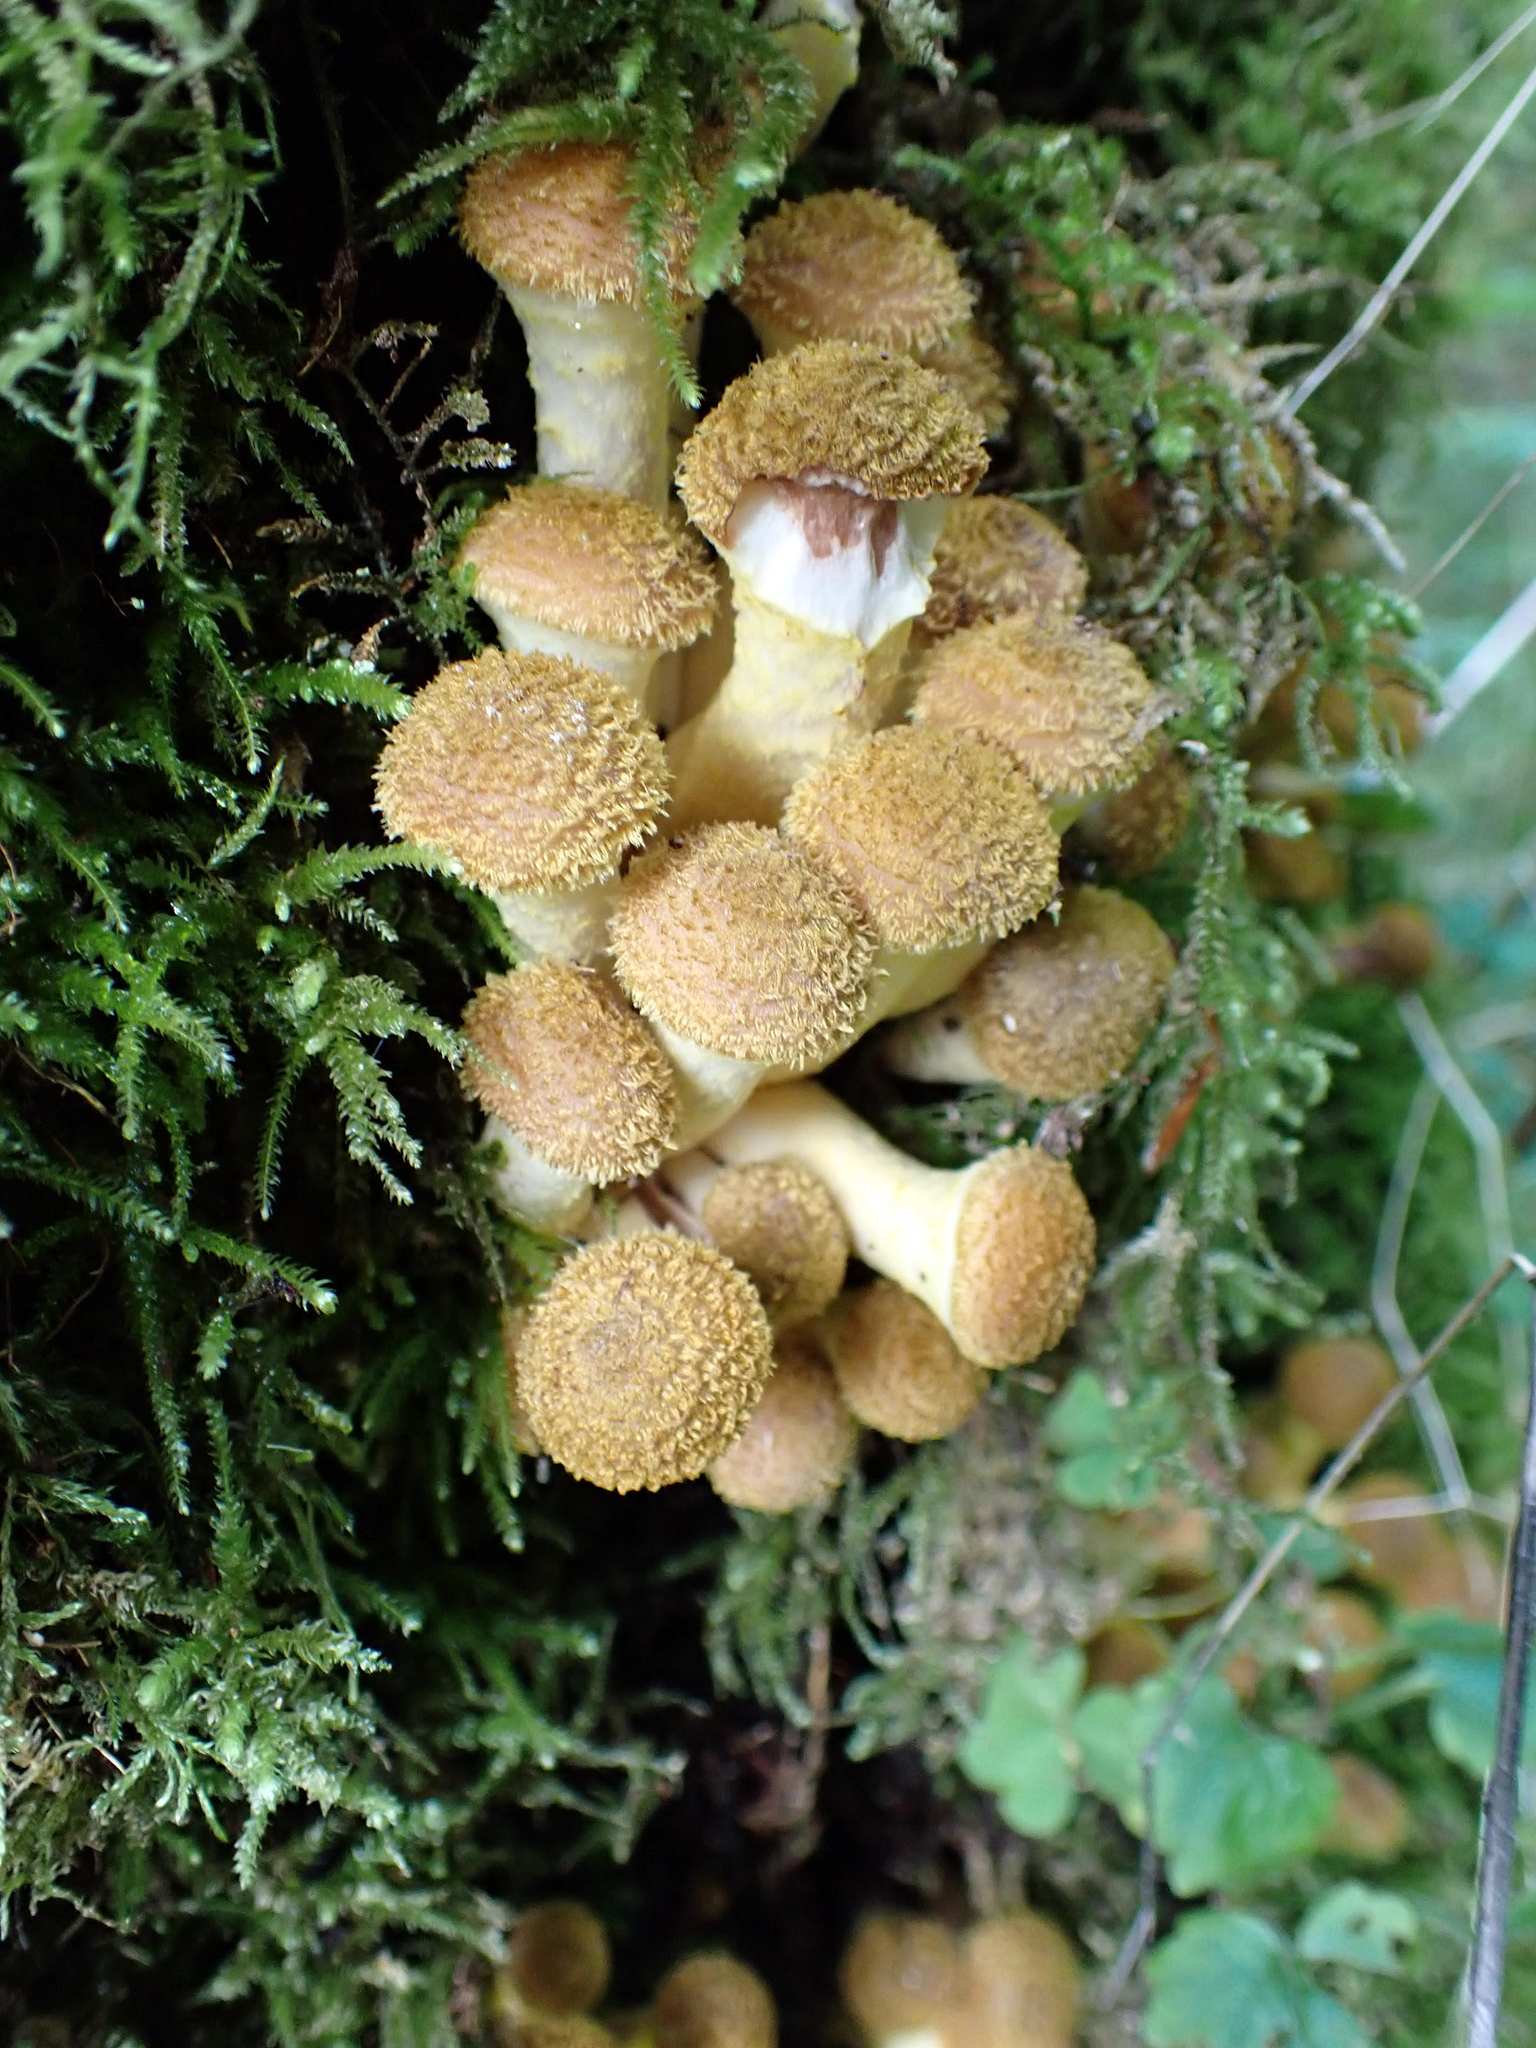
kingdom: Fungi
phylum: Basidiomycota
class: Agaricomycetes
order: Agaricales
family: Physalacriaceae
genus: Armillaria
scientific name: Armillaria gallica
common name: Bulbous honey fungus
